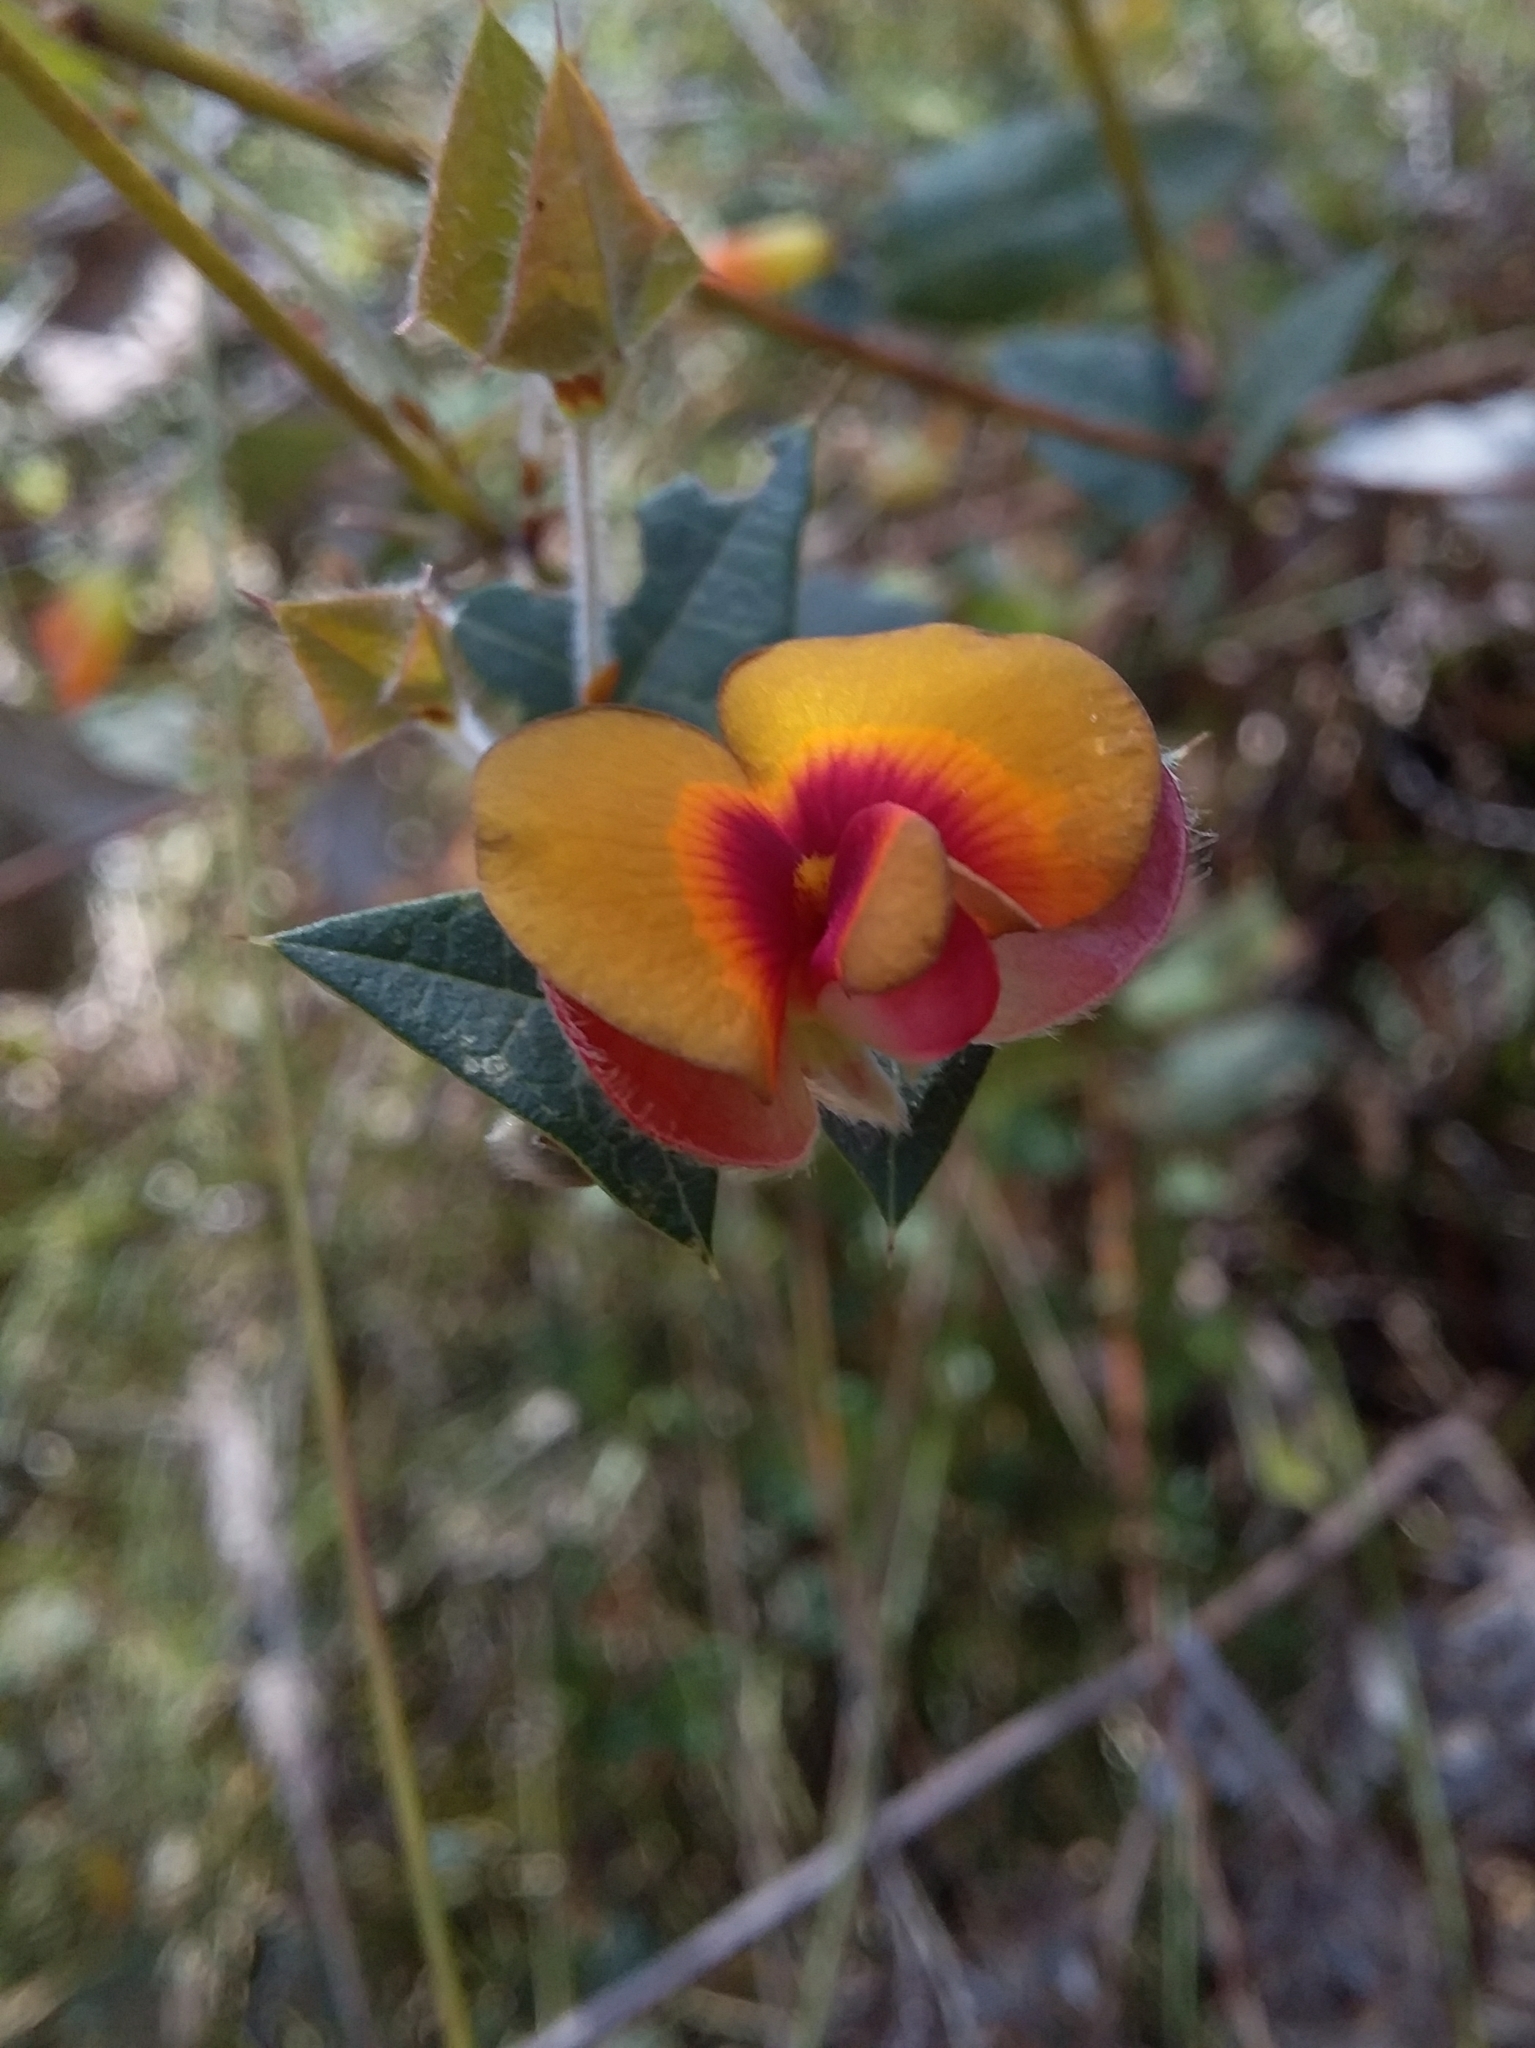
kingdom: Plantae
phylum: Tracheophyta
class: Magnoliopsida
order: Fabales
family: Fabaceae
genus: Platylobium
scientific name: Platylobium obtusangulum
